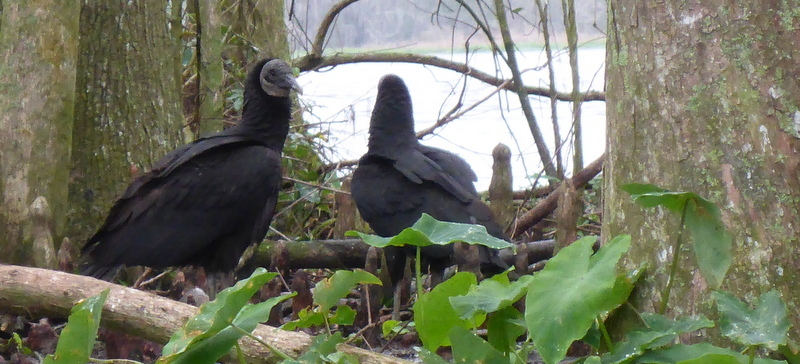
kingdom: Animalia
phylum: Chordata
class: Aves
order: Accipitriformes
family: Cathartidae
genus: Coragyps
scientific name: Coragyps atratus
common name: Black vulture
